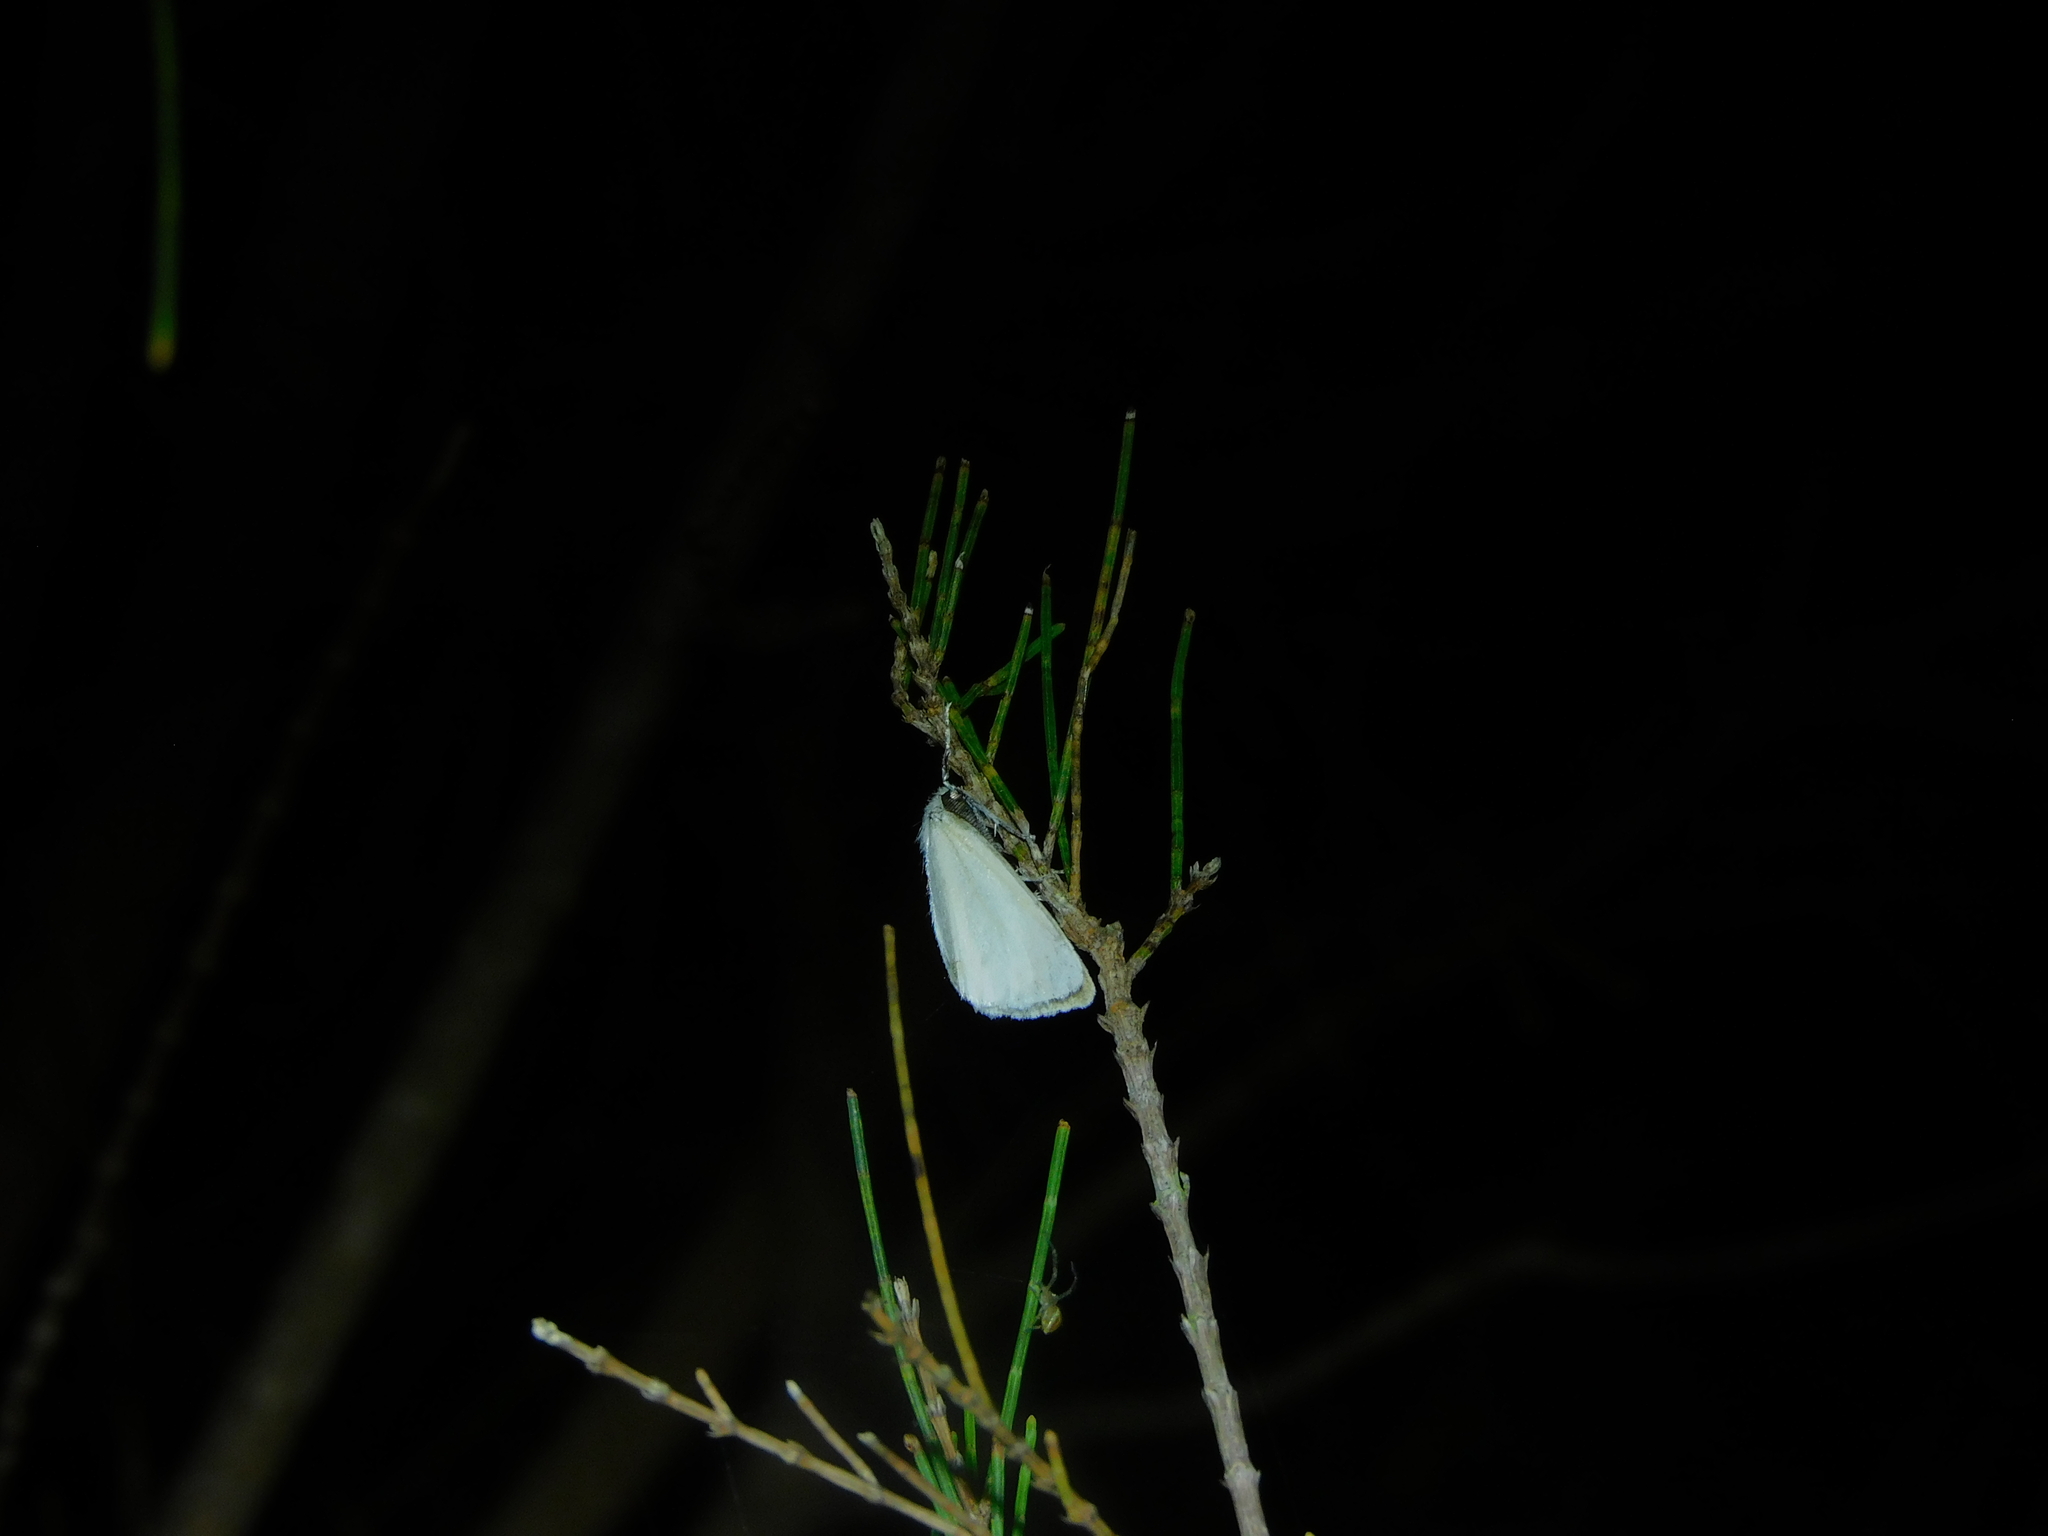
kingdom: Animalia
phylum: Arthropoda
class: Insecta
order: Lepidoptera
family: Erebidae
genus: Acyphas
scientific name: Acyphas semiochrea
